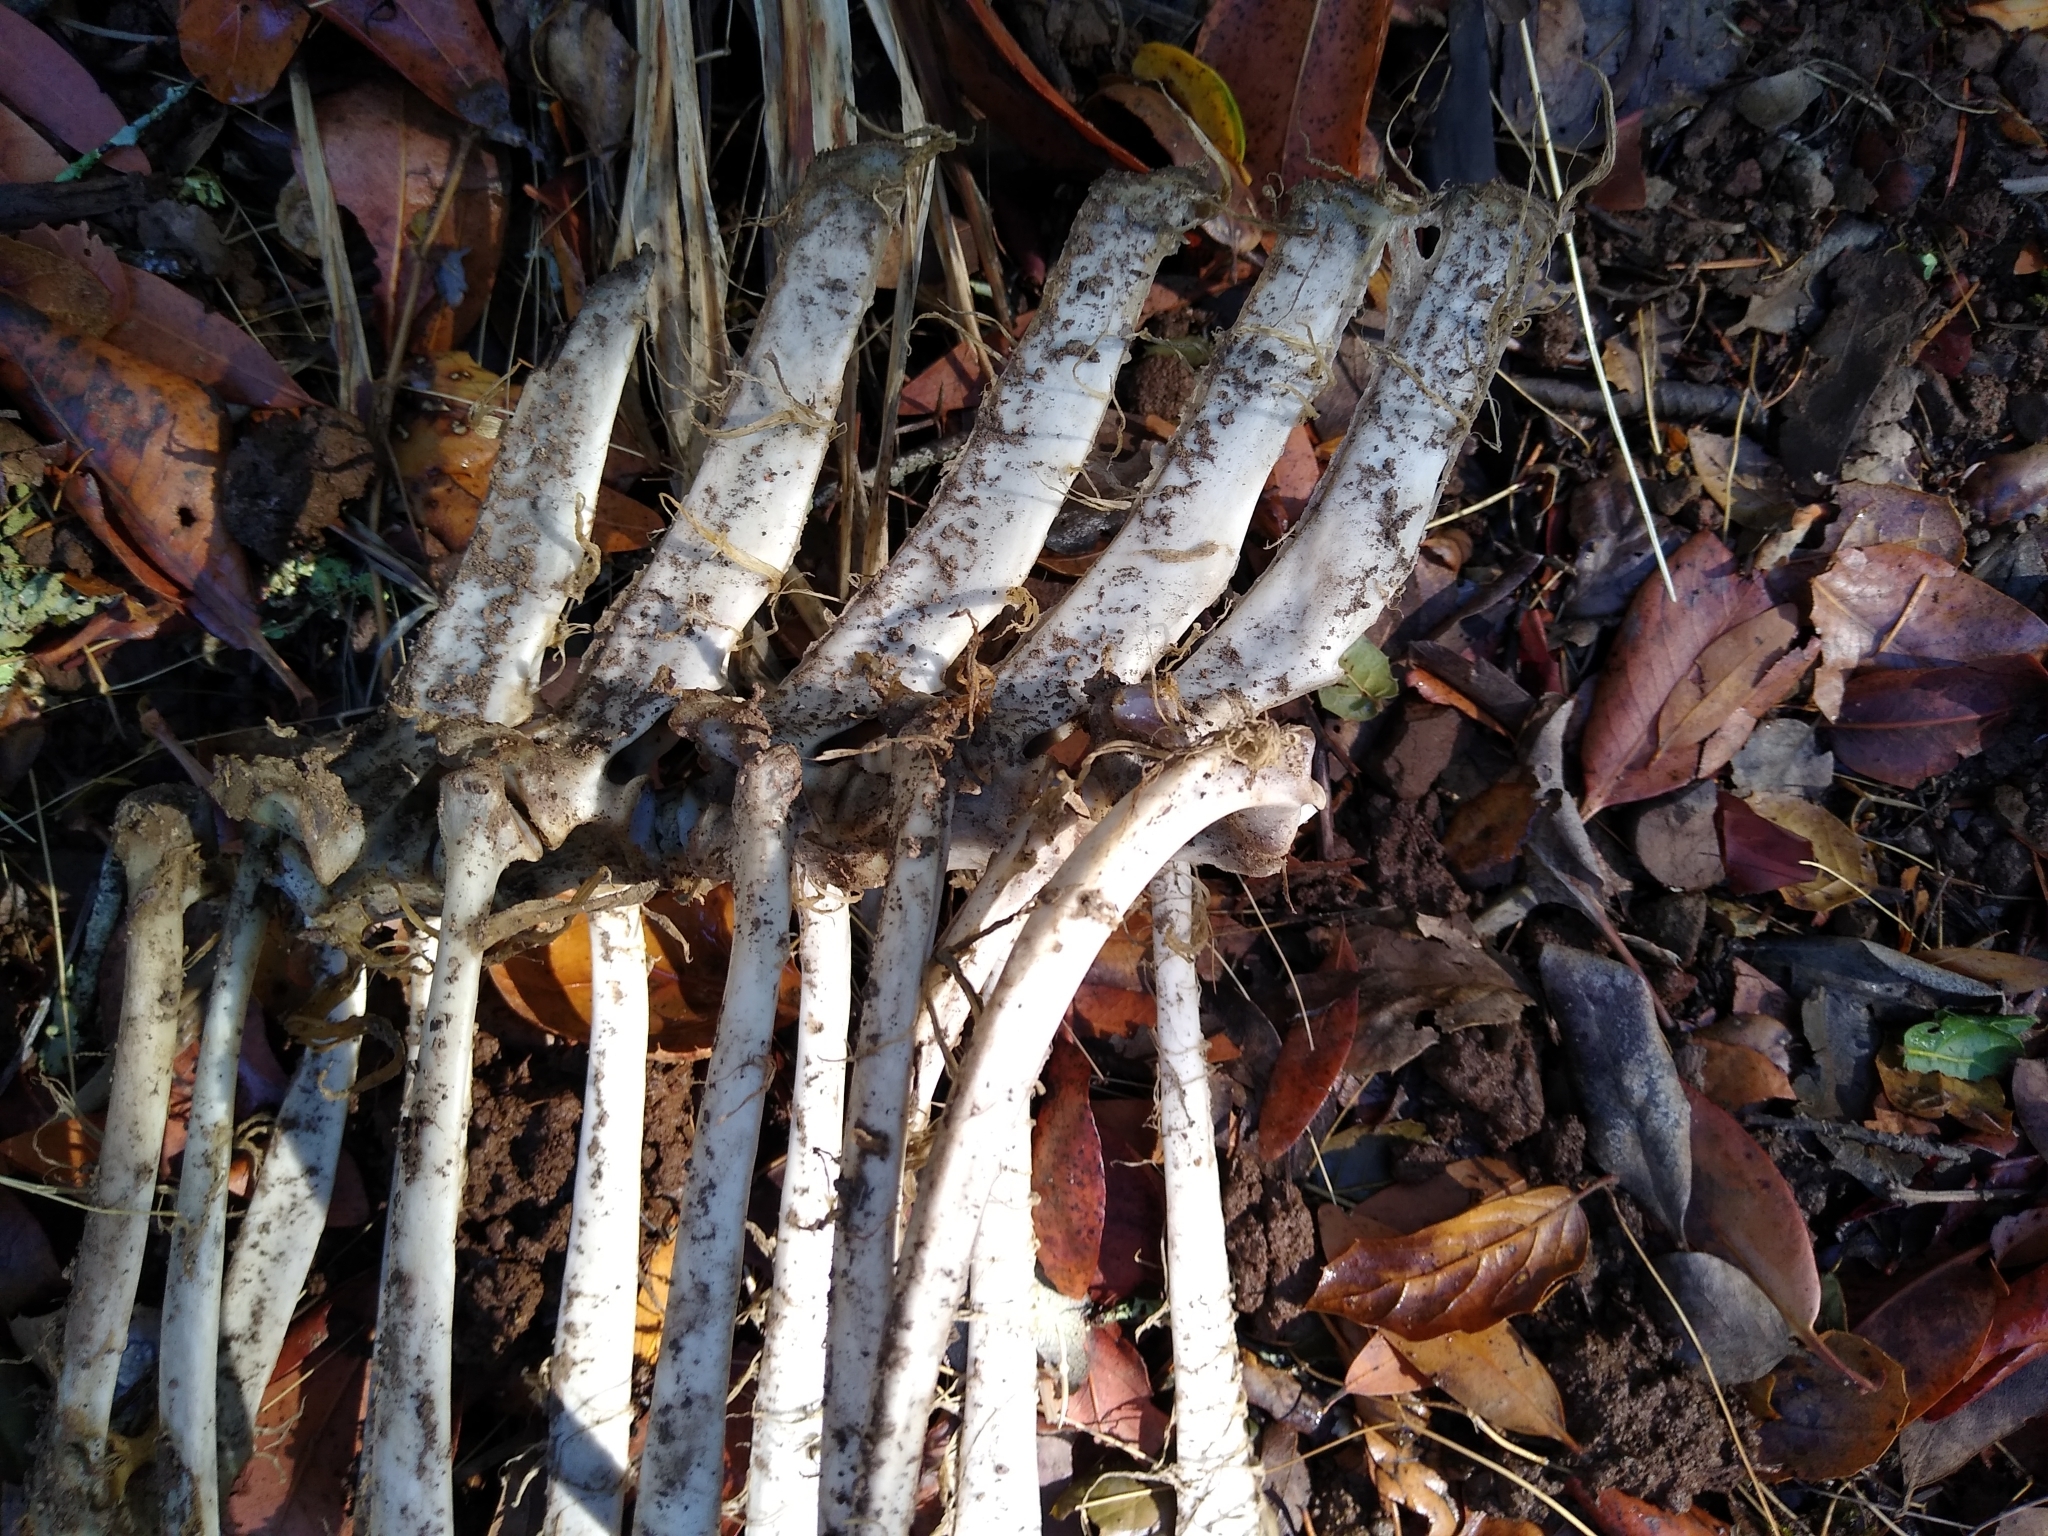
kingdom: Animalia
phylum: Chordata
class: Mammalia
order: Artiodactyla
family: Cervidae
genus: Odocoileus
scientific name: Odocoileus hemionus
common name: Mule deer
